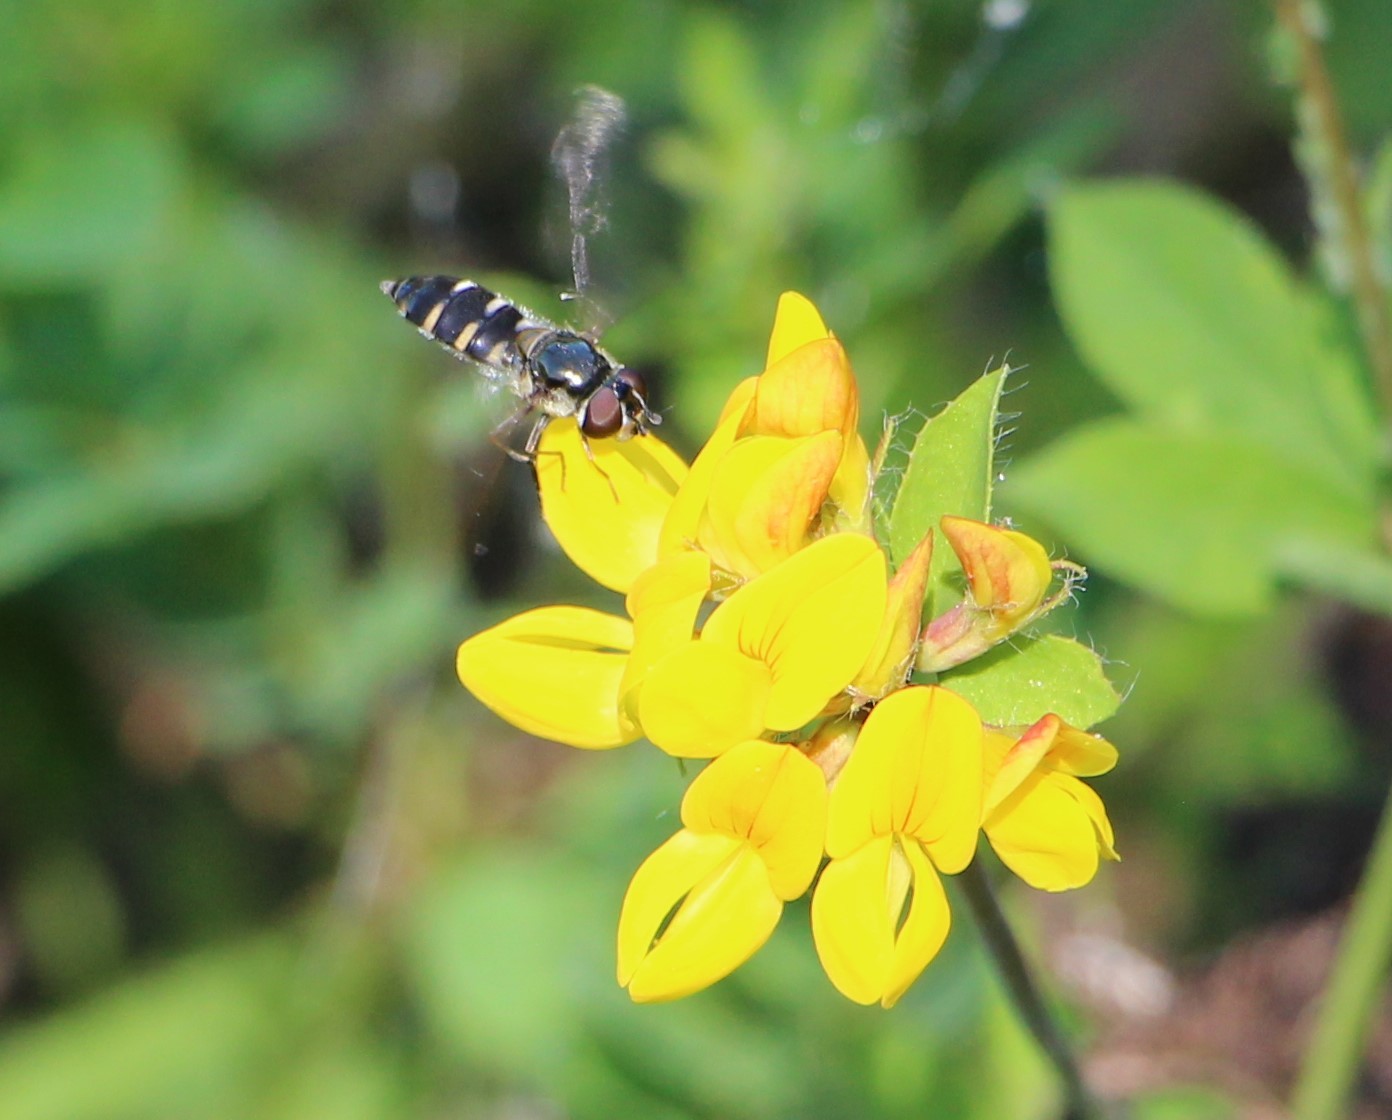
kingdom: Animalia
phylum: Arthropoda
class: Insecta
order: Diptera
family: Syrphidae
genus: Melangyna
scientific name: Melangyna novaezelandiae
